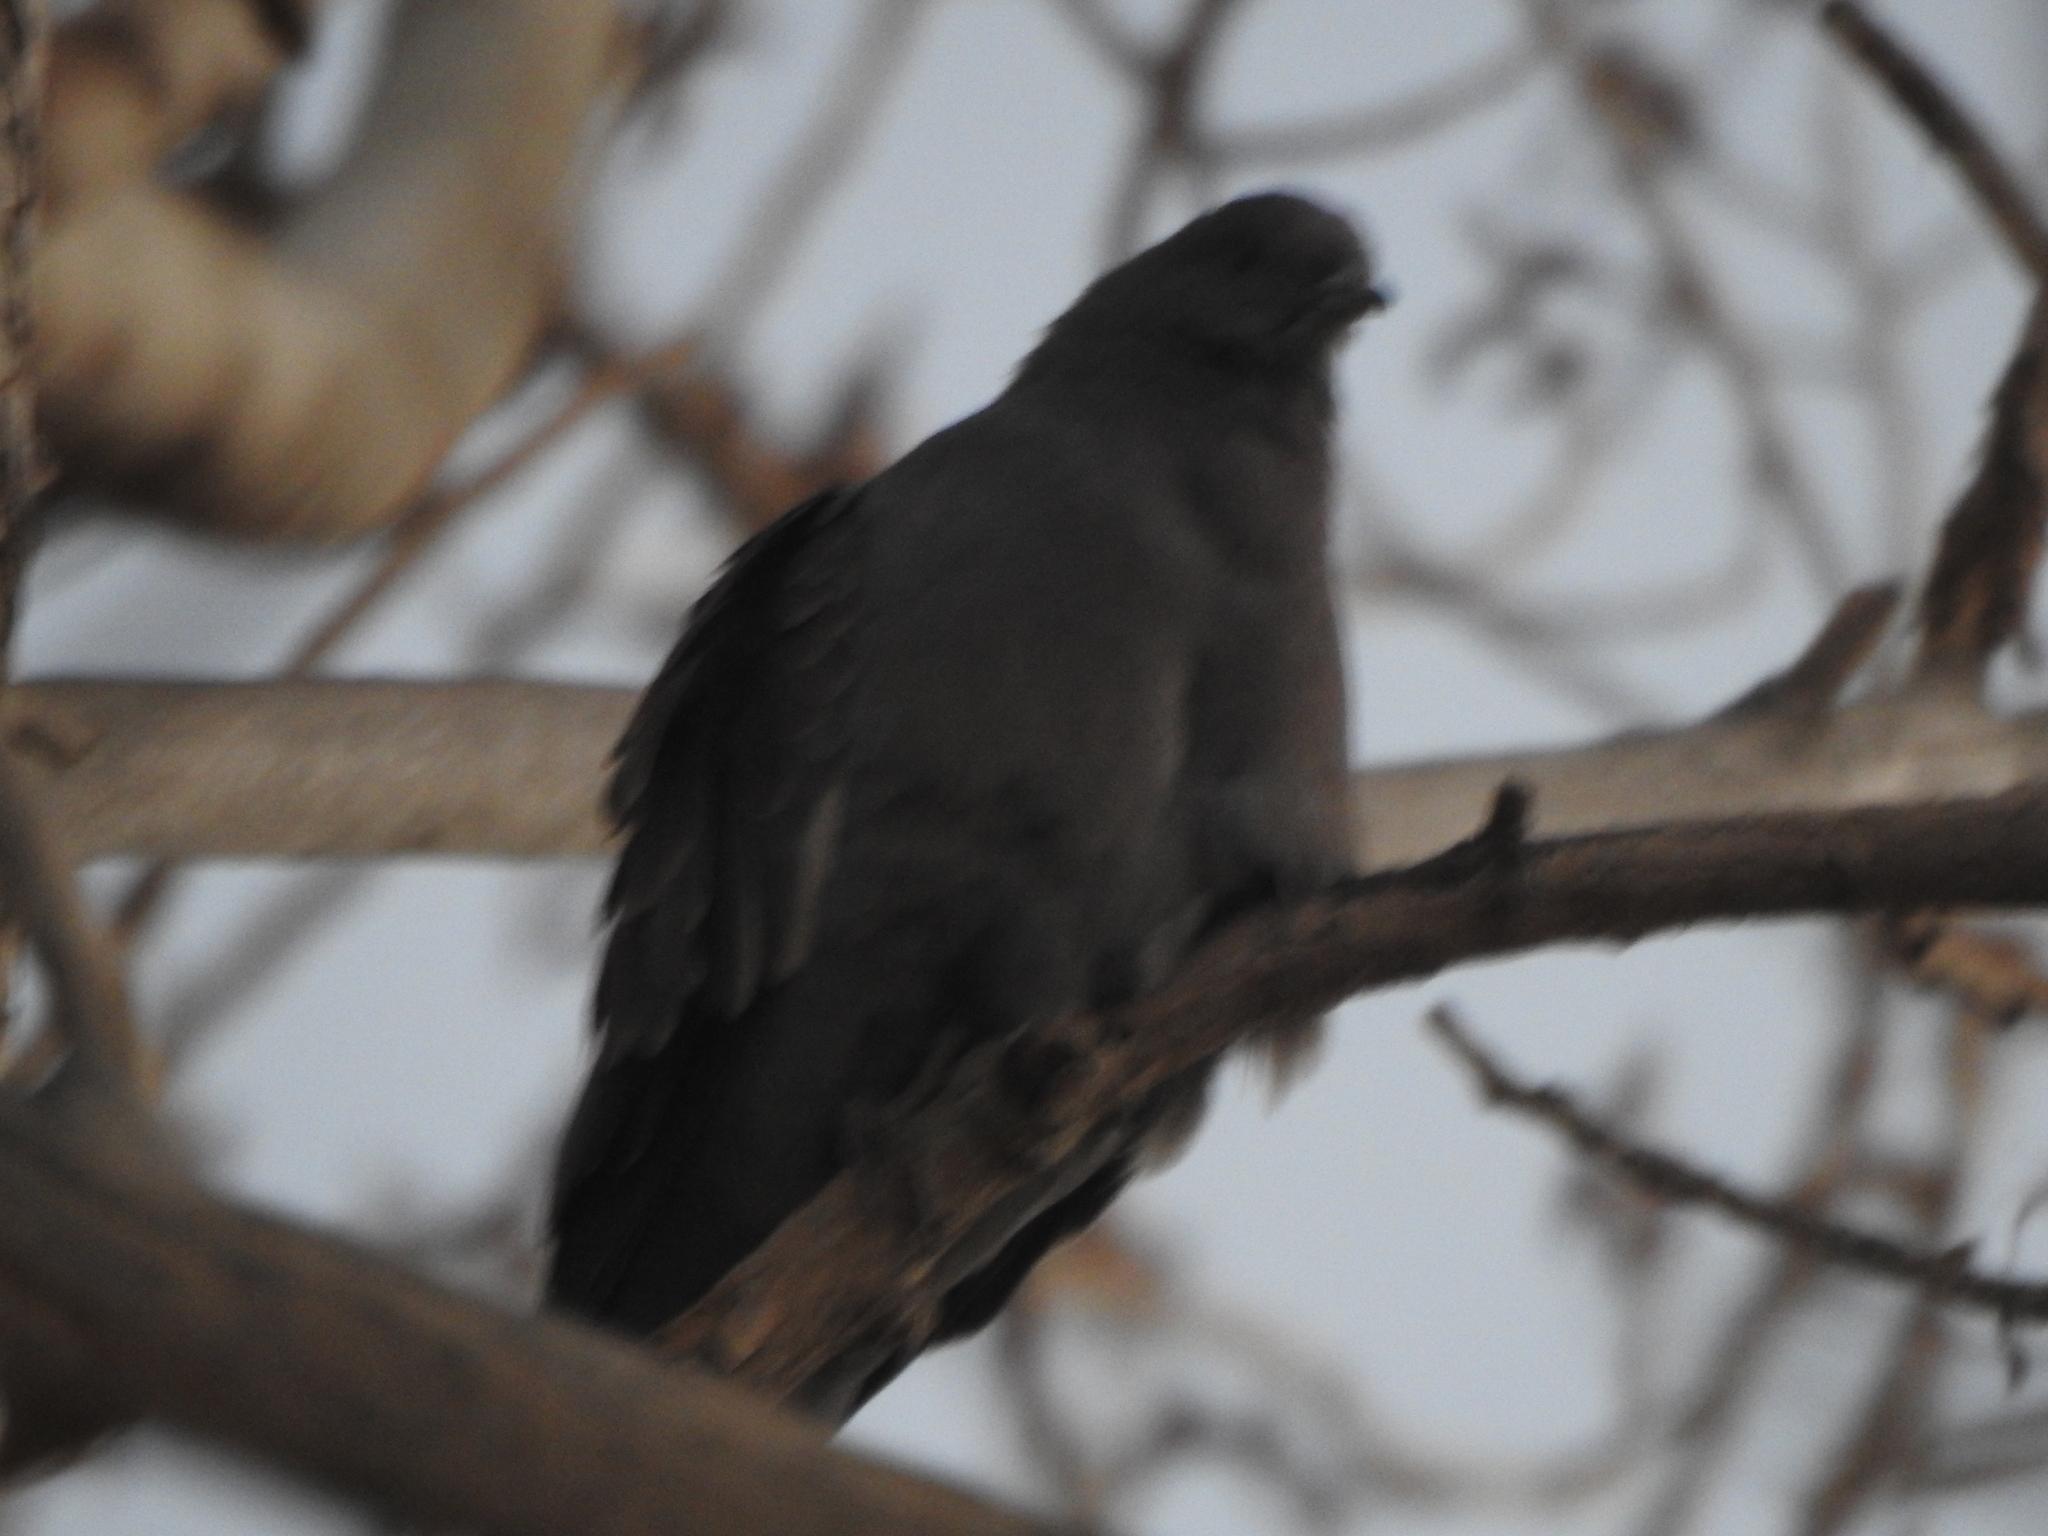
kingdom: Animalia
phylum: Chordata
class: Aves
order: Columbiformes
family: Columbidae
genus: Patagioenas
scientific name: Patagioenas maculosa
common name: Spot-winged pigeon
